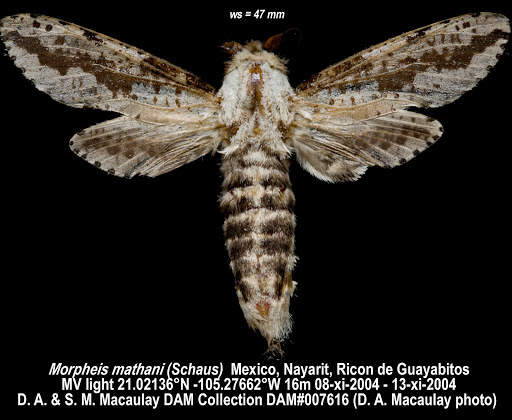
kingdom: Animalia
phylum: Arthropoda
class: Insecta
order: Lepidoptera
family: Cossidae
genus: Morpheis
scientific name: Morpheis mathani
